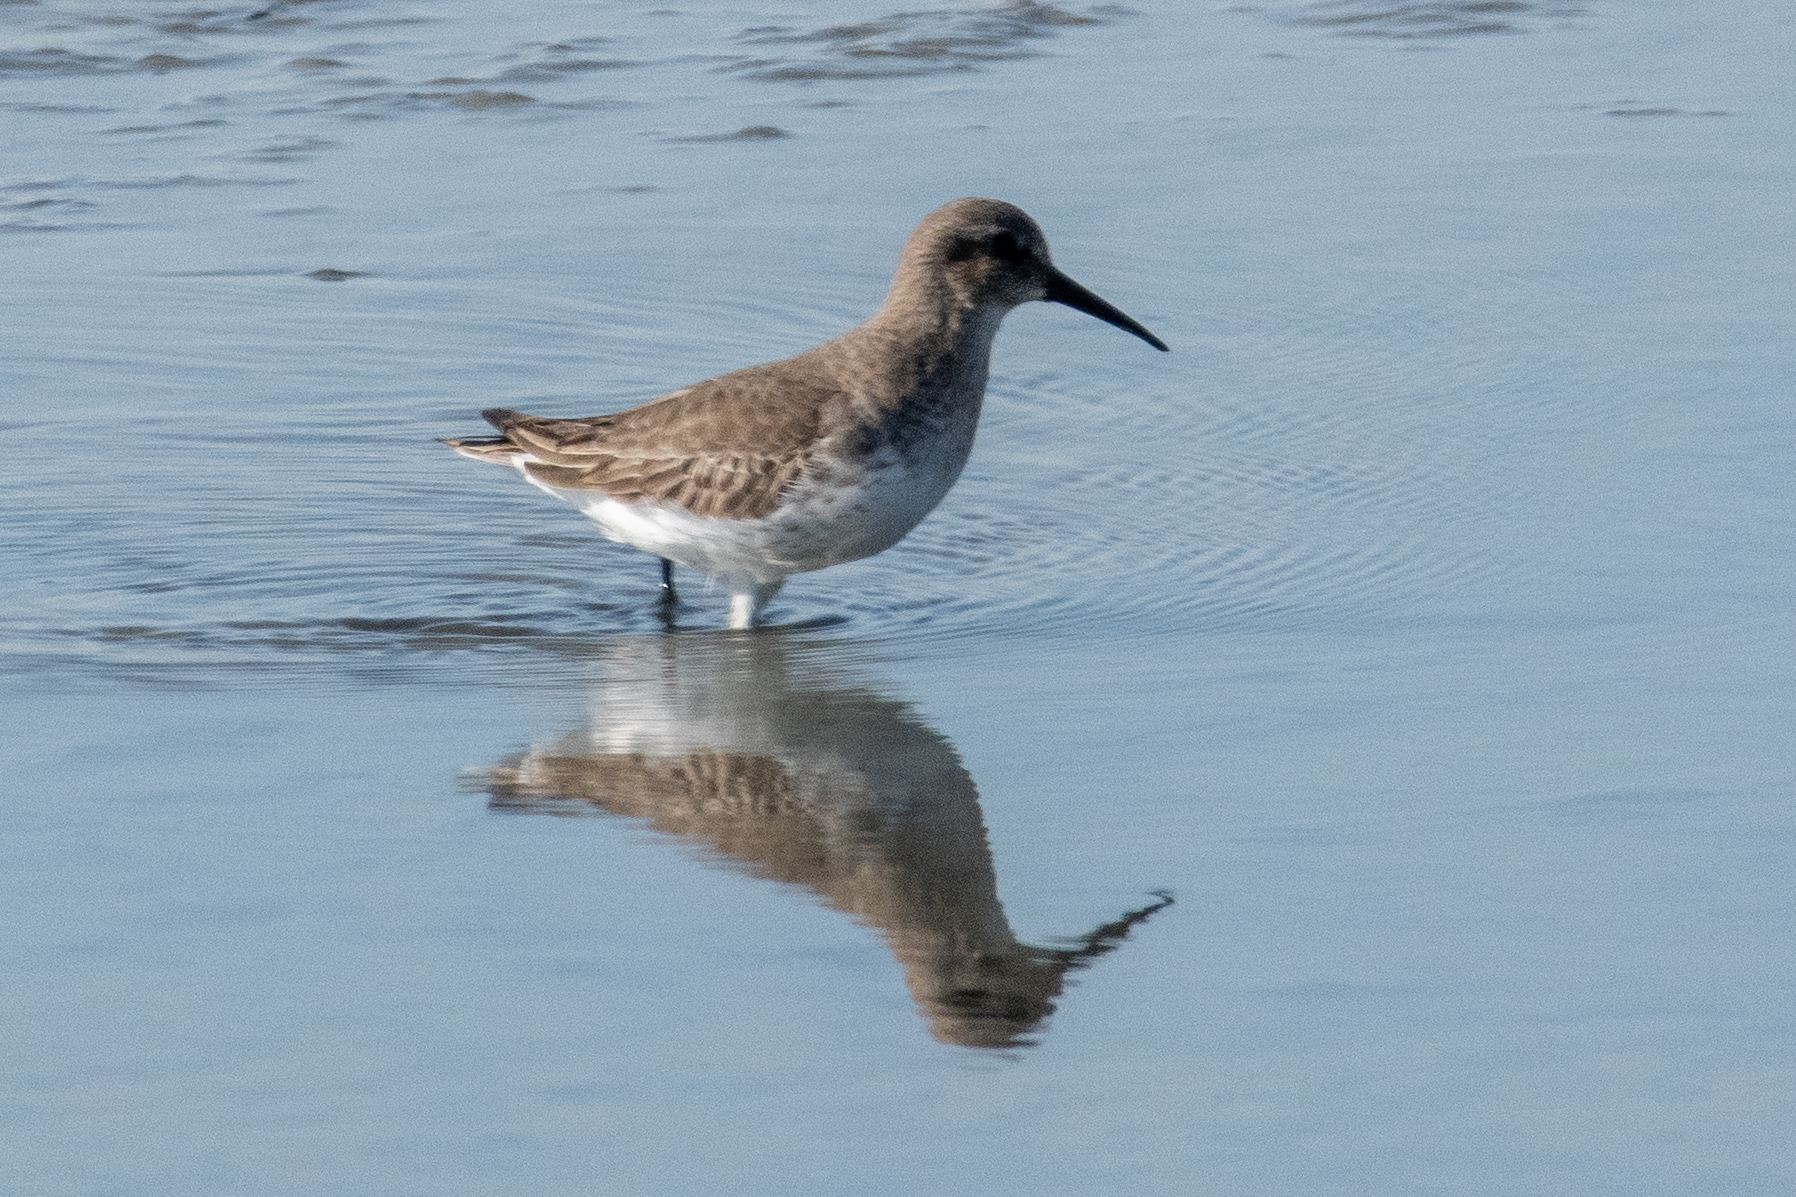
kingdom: Animalia
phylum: Chordata
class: Aves
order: Charadriiformes
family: Scolopacidae
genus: Calidris
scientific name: Calidris alpina
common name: Dunlin
